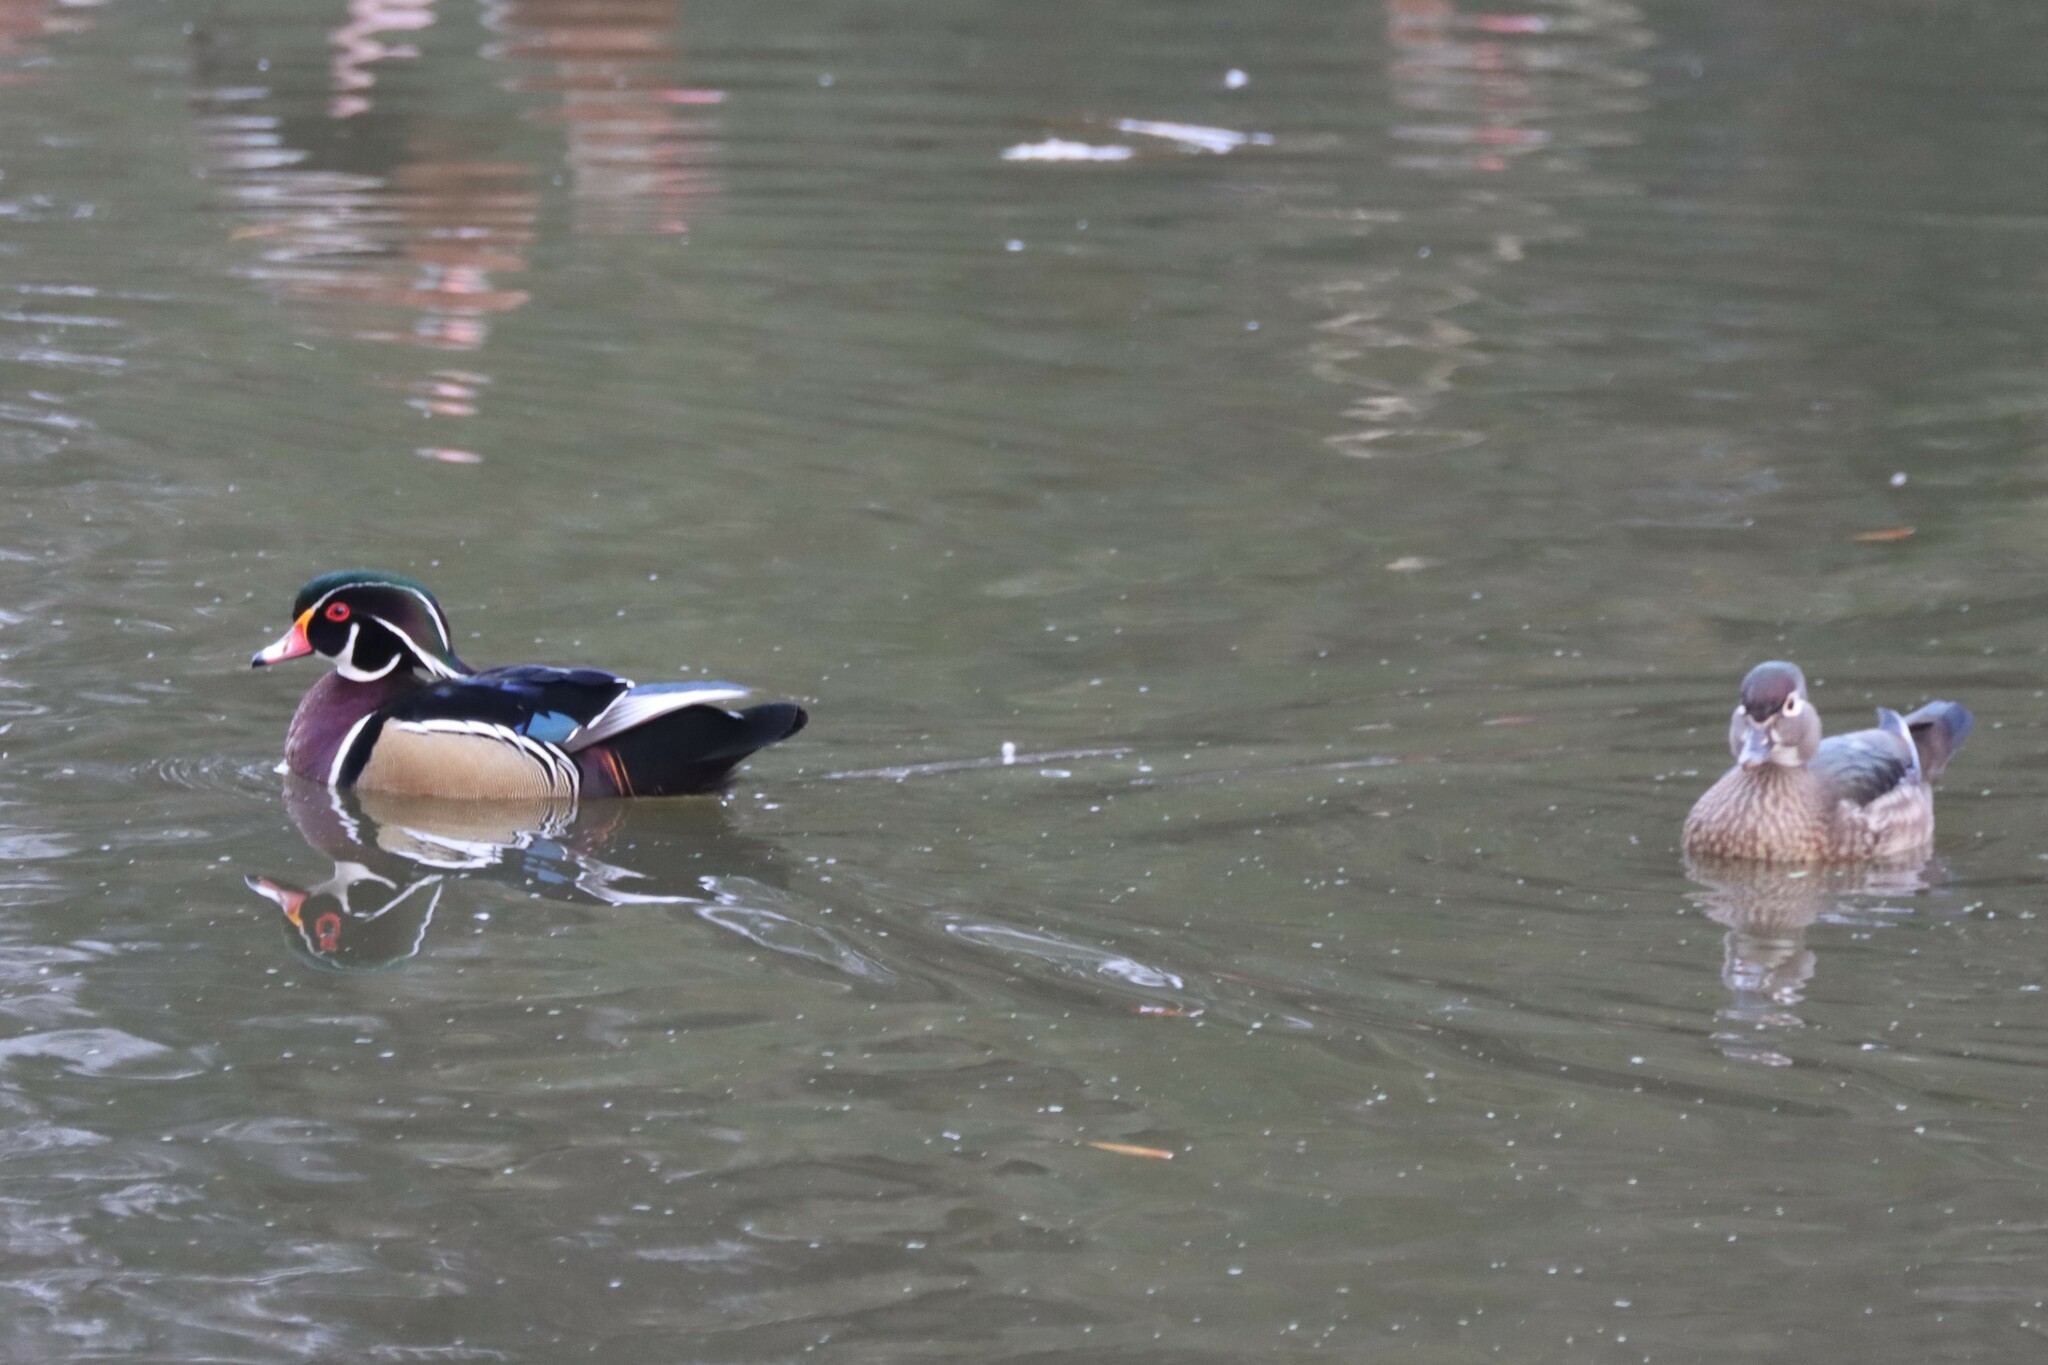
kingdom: Animalia
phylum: Chordata
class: Aves
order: Anseriformes
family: Anatidae
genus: Aix
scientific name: Aix sponsa
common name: Wood duck
